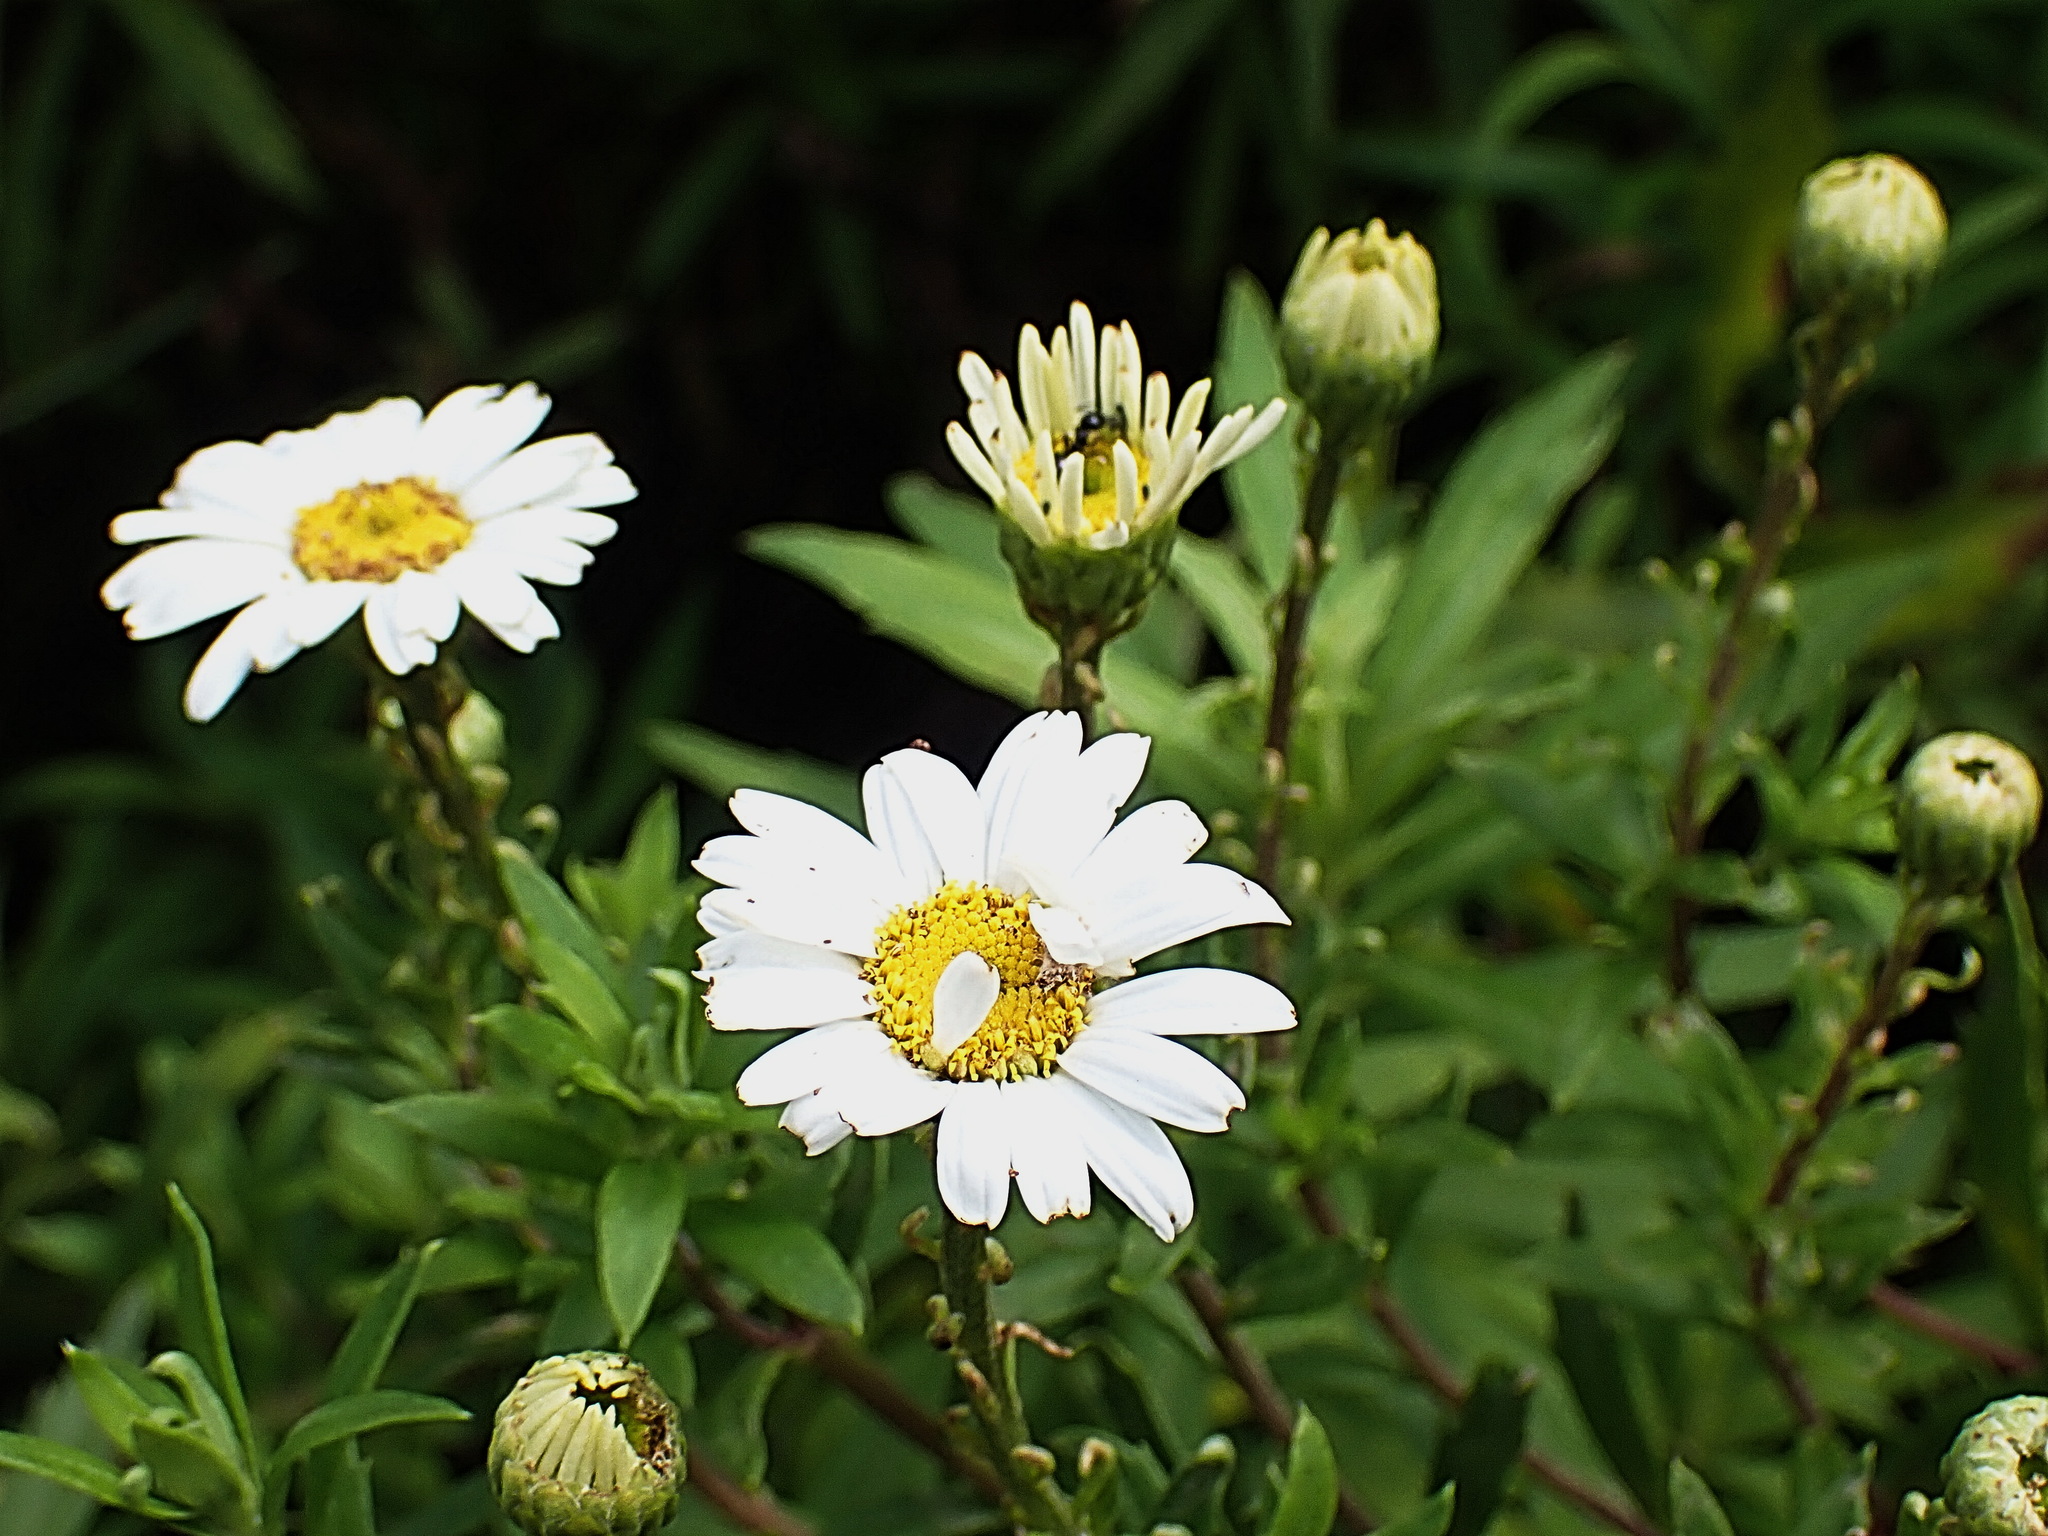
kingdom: Plantae
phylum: Tracheophyta
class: Magnoliopsida
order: Asterales
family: Asteraceae
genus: Osmitopsis
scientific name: Osmitopsis osmitoides
